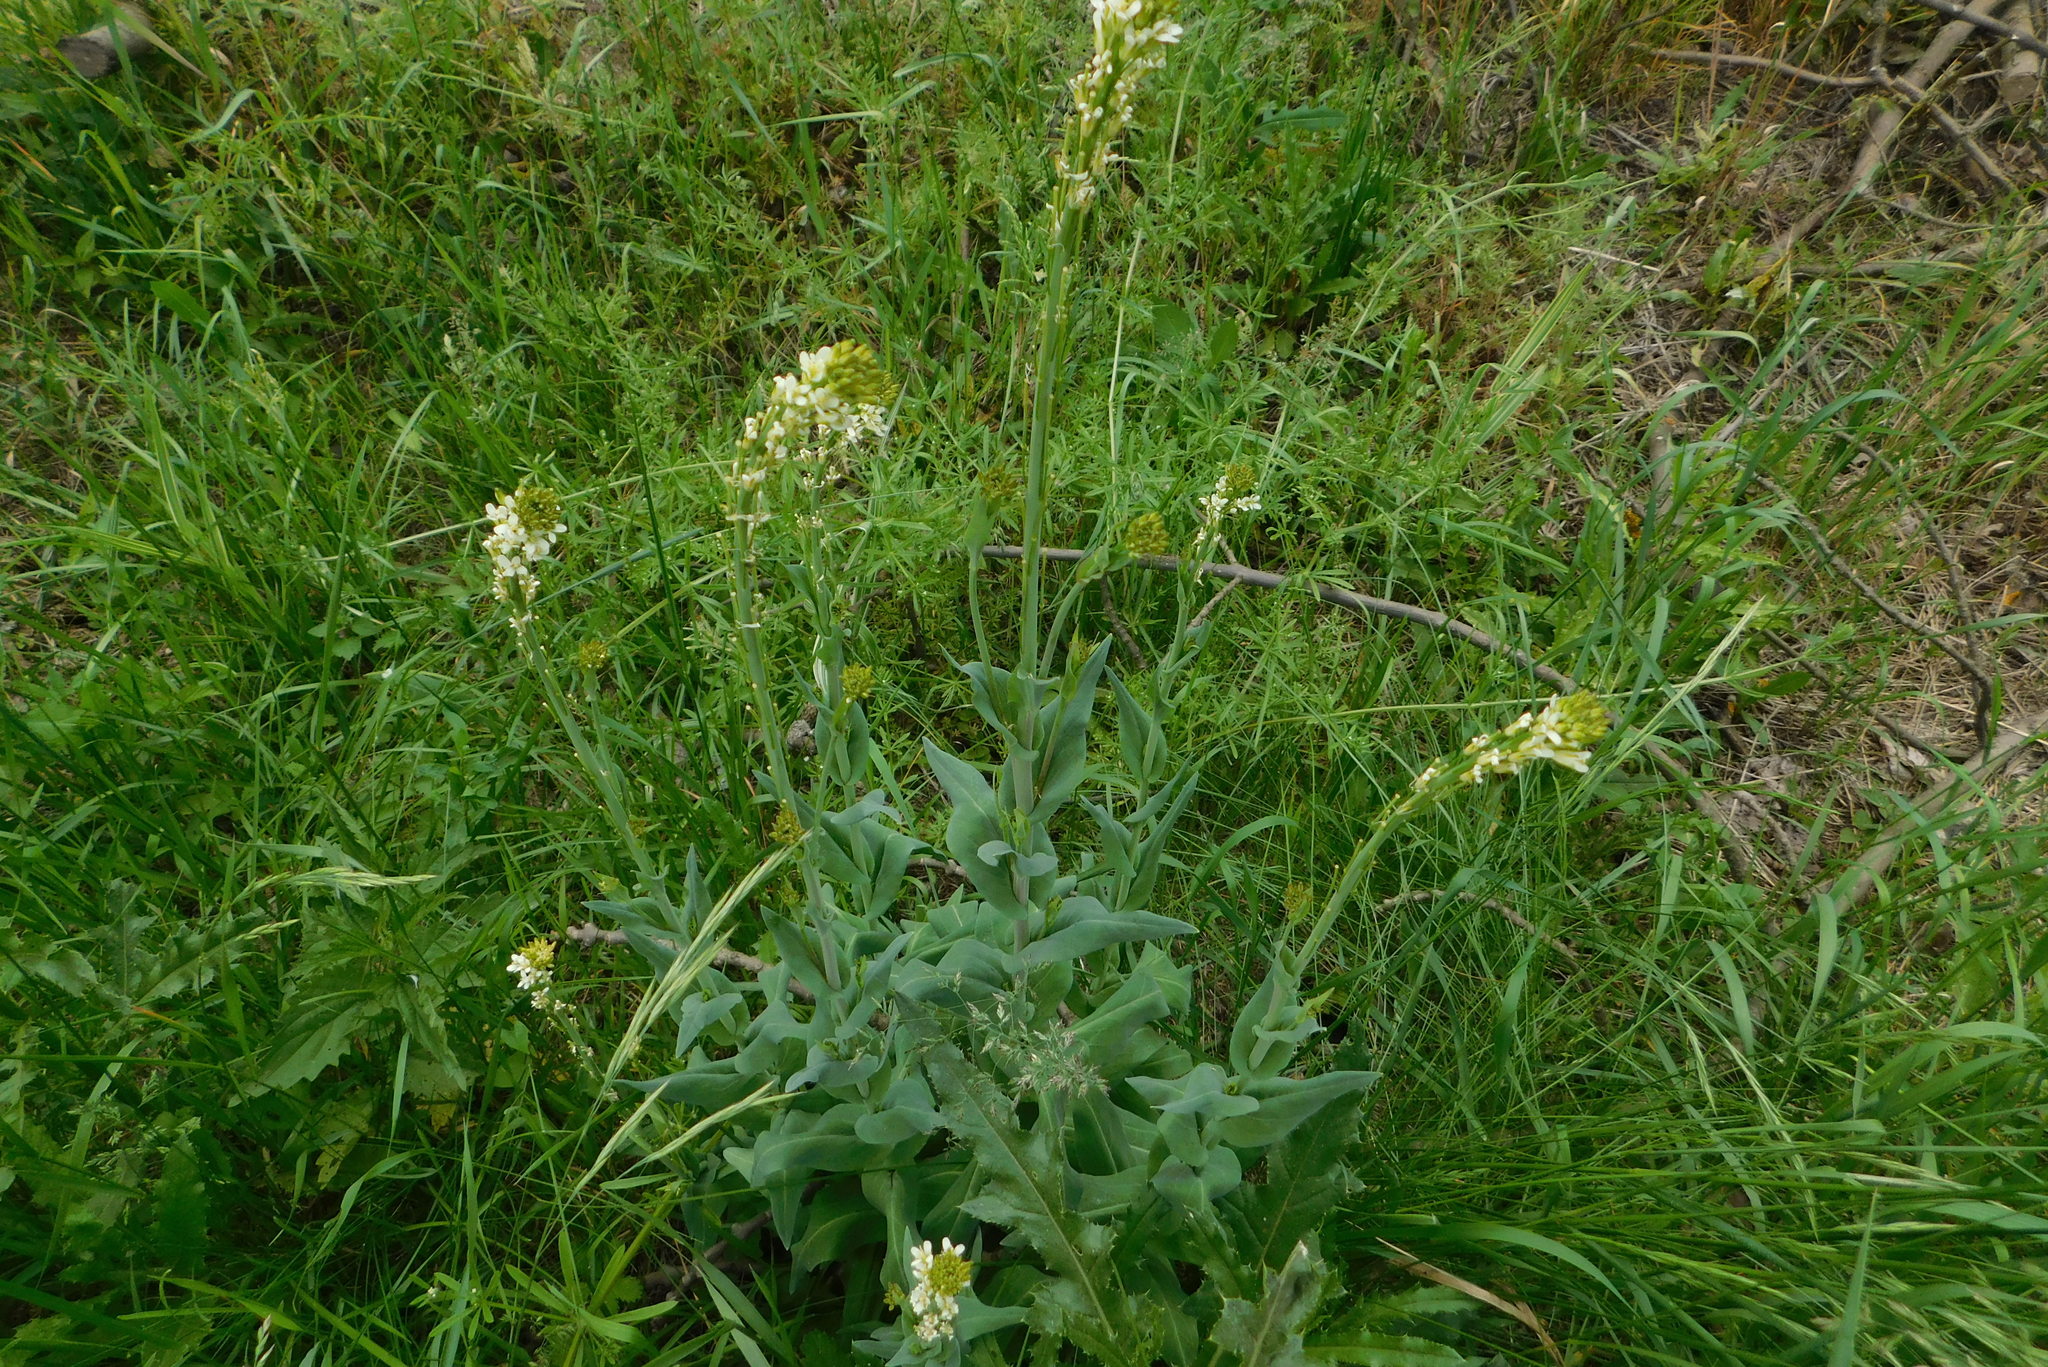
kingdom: Plantae
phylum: Tracheophyta
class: Magnoliopsida
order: Brassicales
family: Brassicaceae
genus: Turritis
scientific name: Turritis glabra
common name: Tower rockcress
